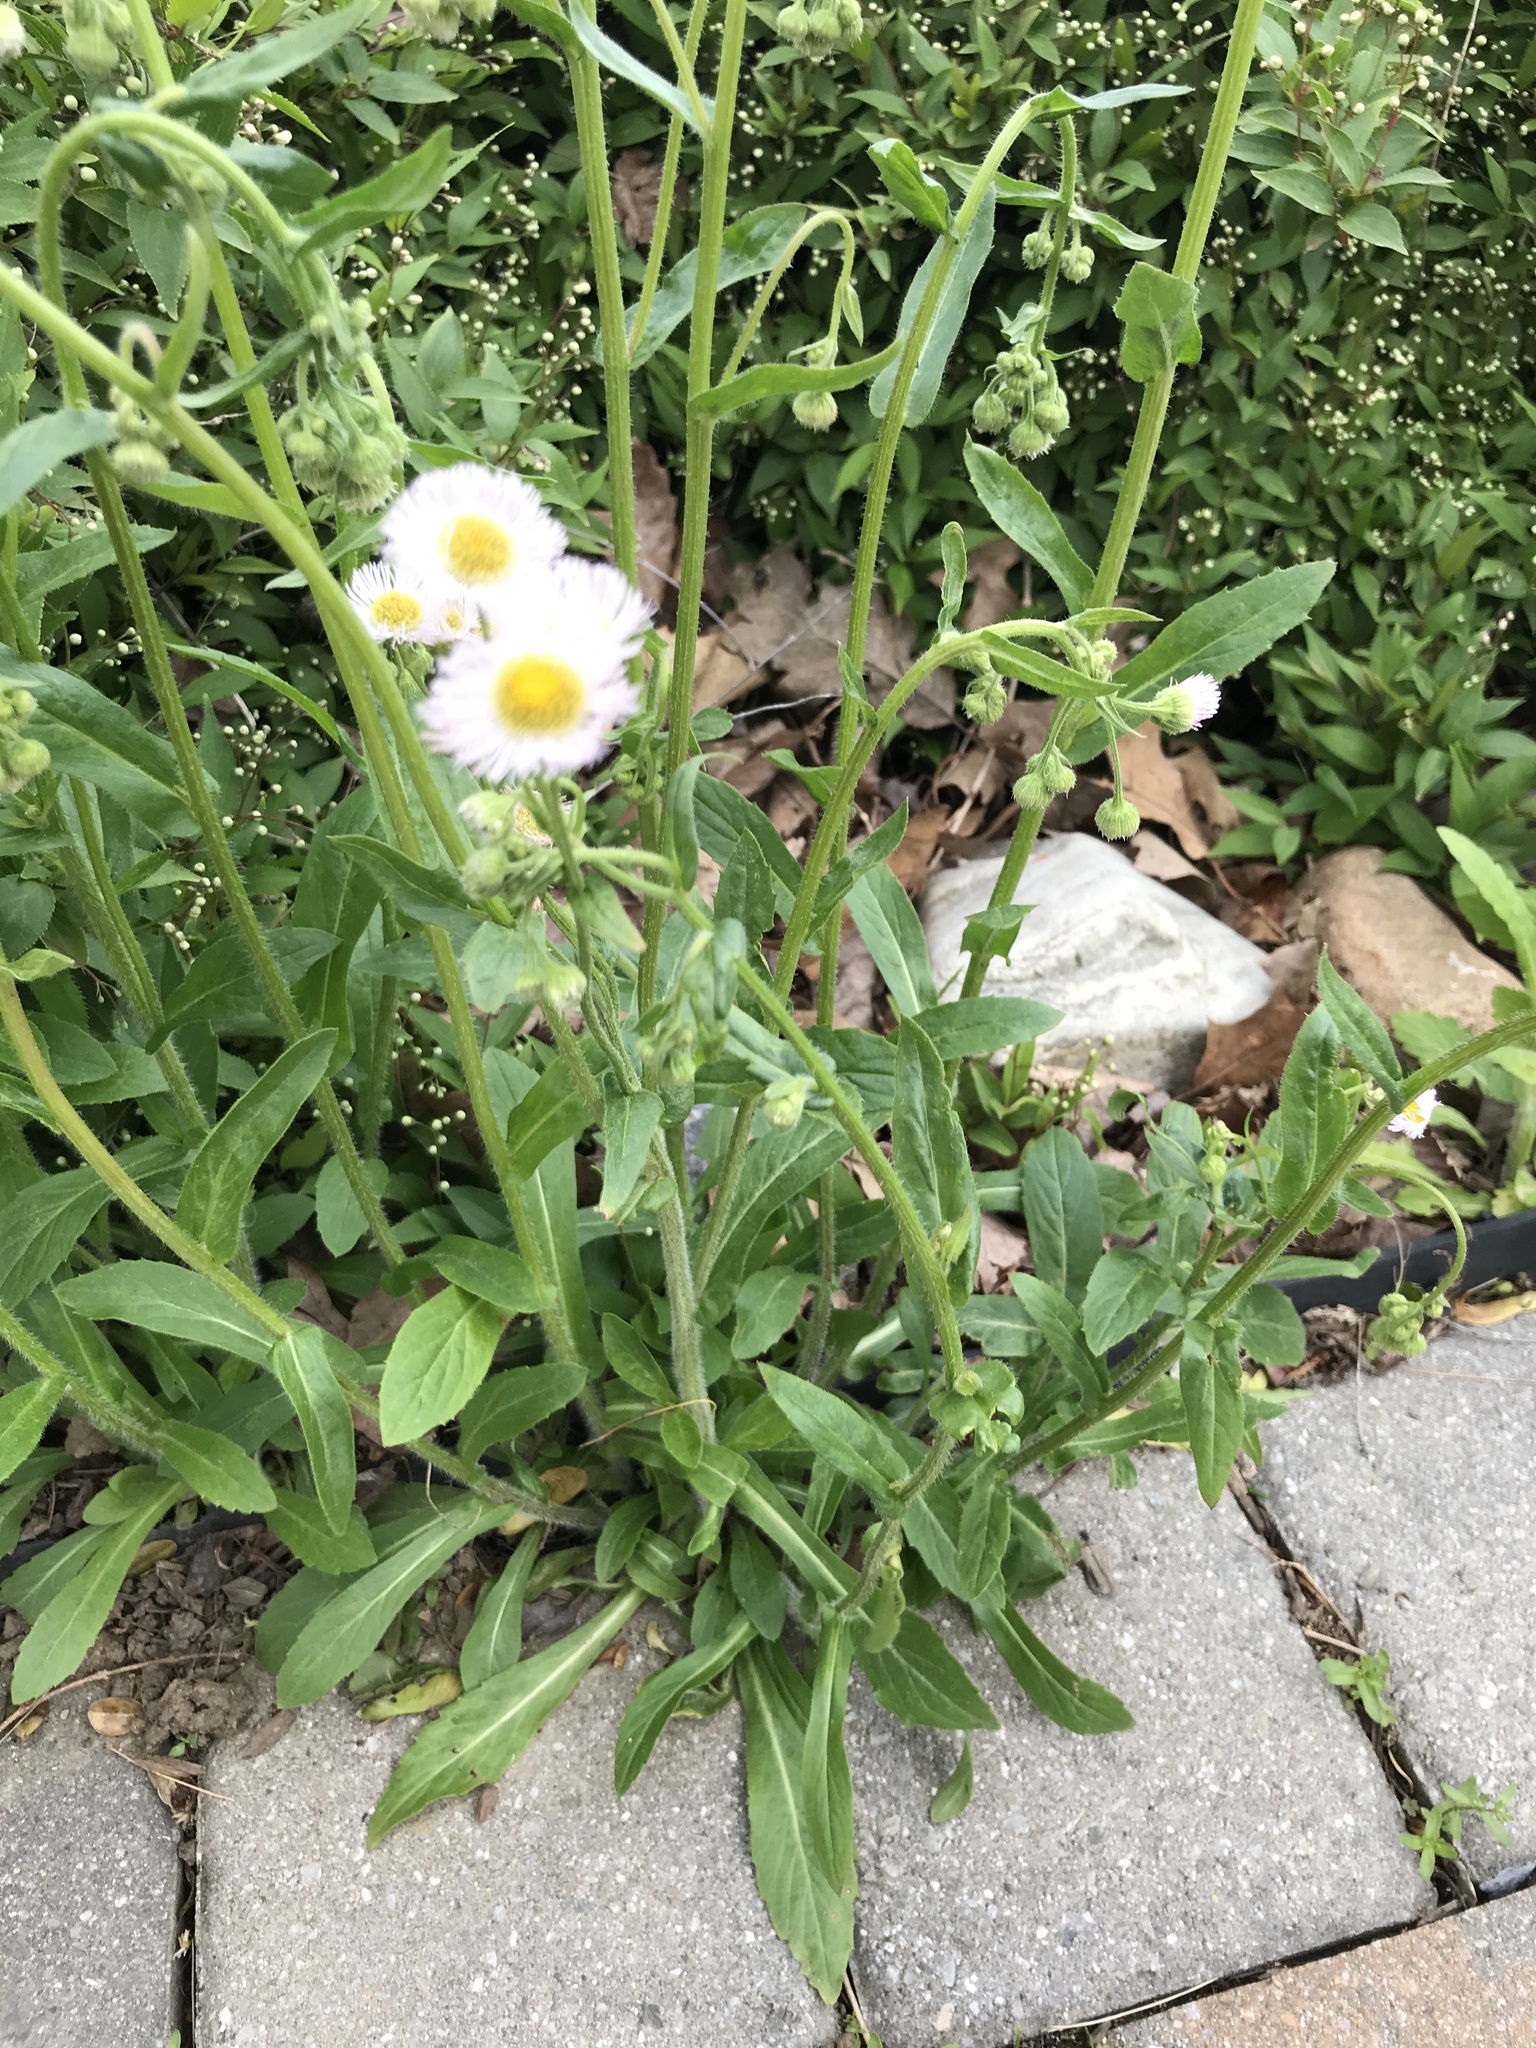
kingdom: Plantae
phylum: Tracheophyta
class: Magnoliopsida
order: Asterales
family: Asteraceae
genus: Erigeron
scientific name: Erigeron philadelphicus
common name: Robin's-plantain
